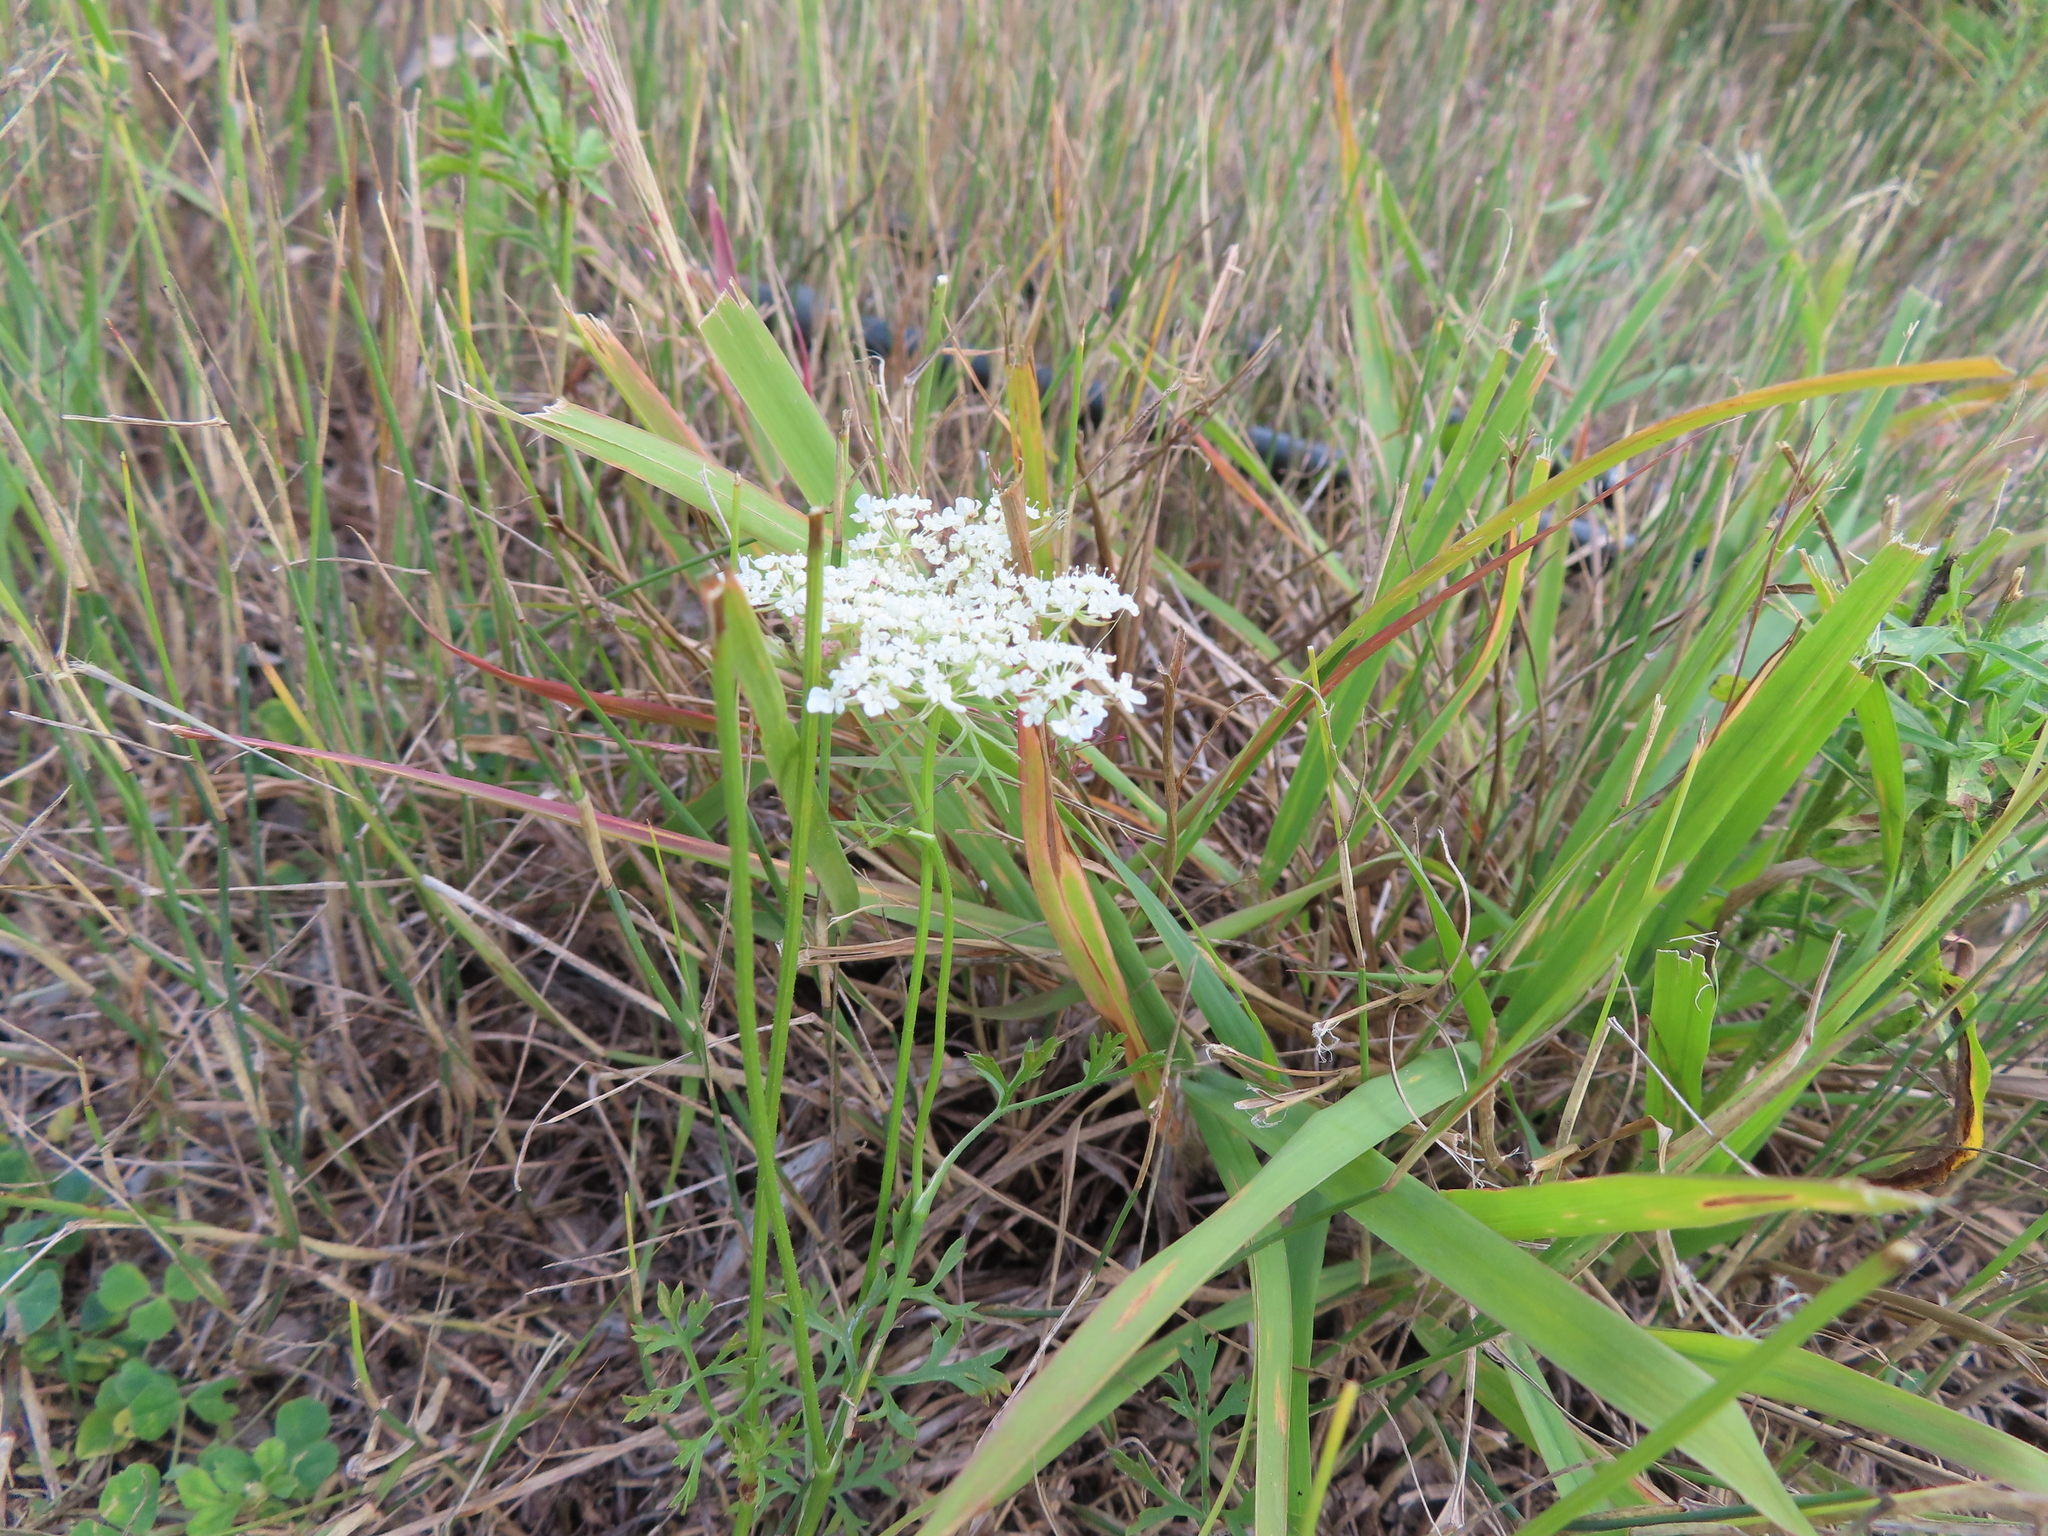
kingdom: Plantae
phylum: Tracheophyta
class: Magnoliopsida
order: Apiales
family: Apiaceae
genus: Daucus
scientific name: Daucus carota
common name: Wild carrot
